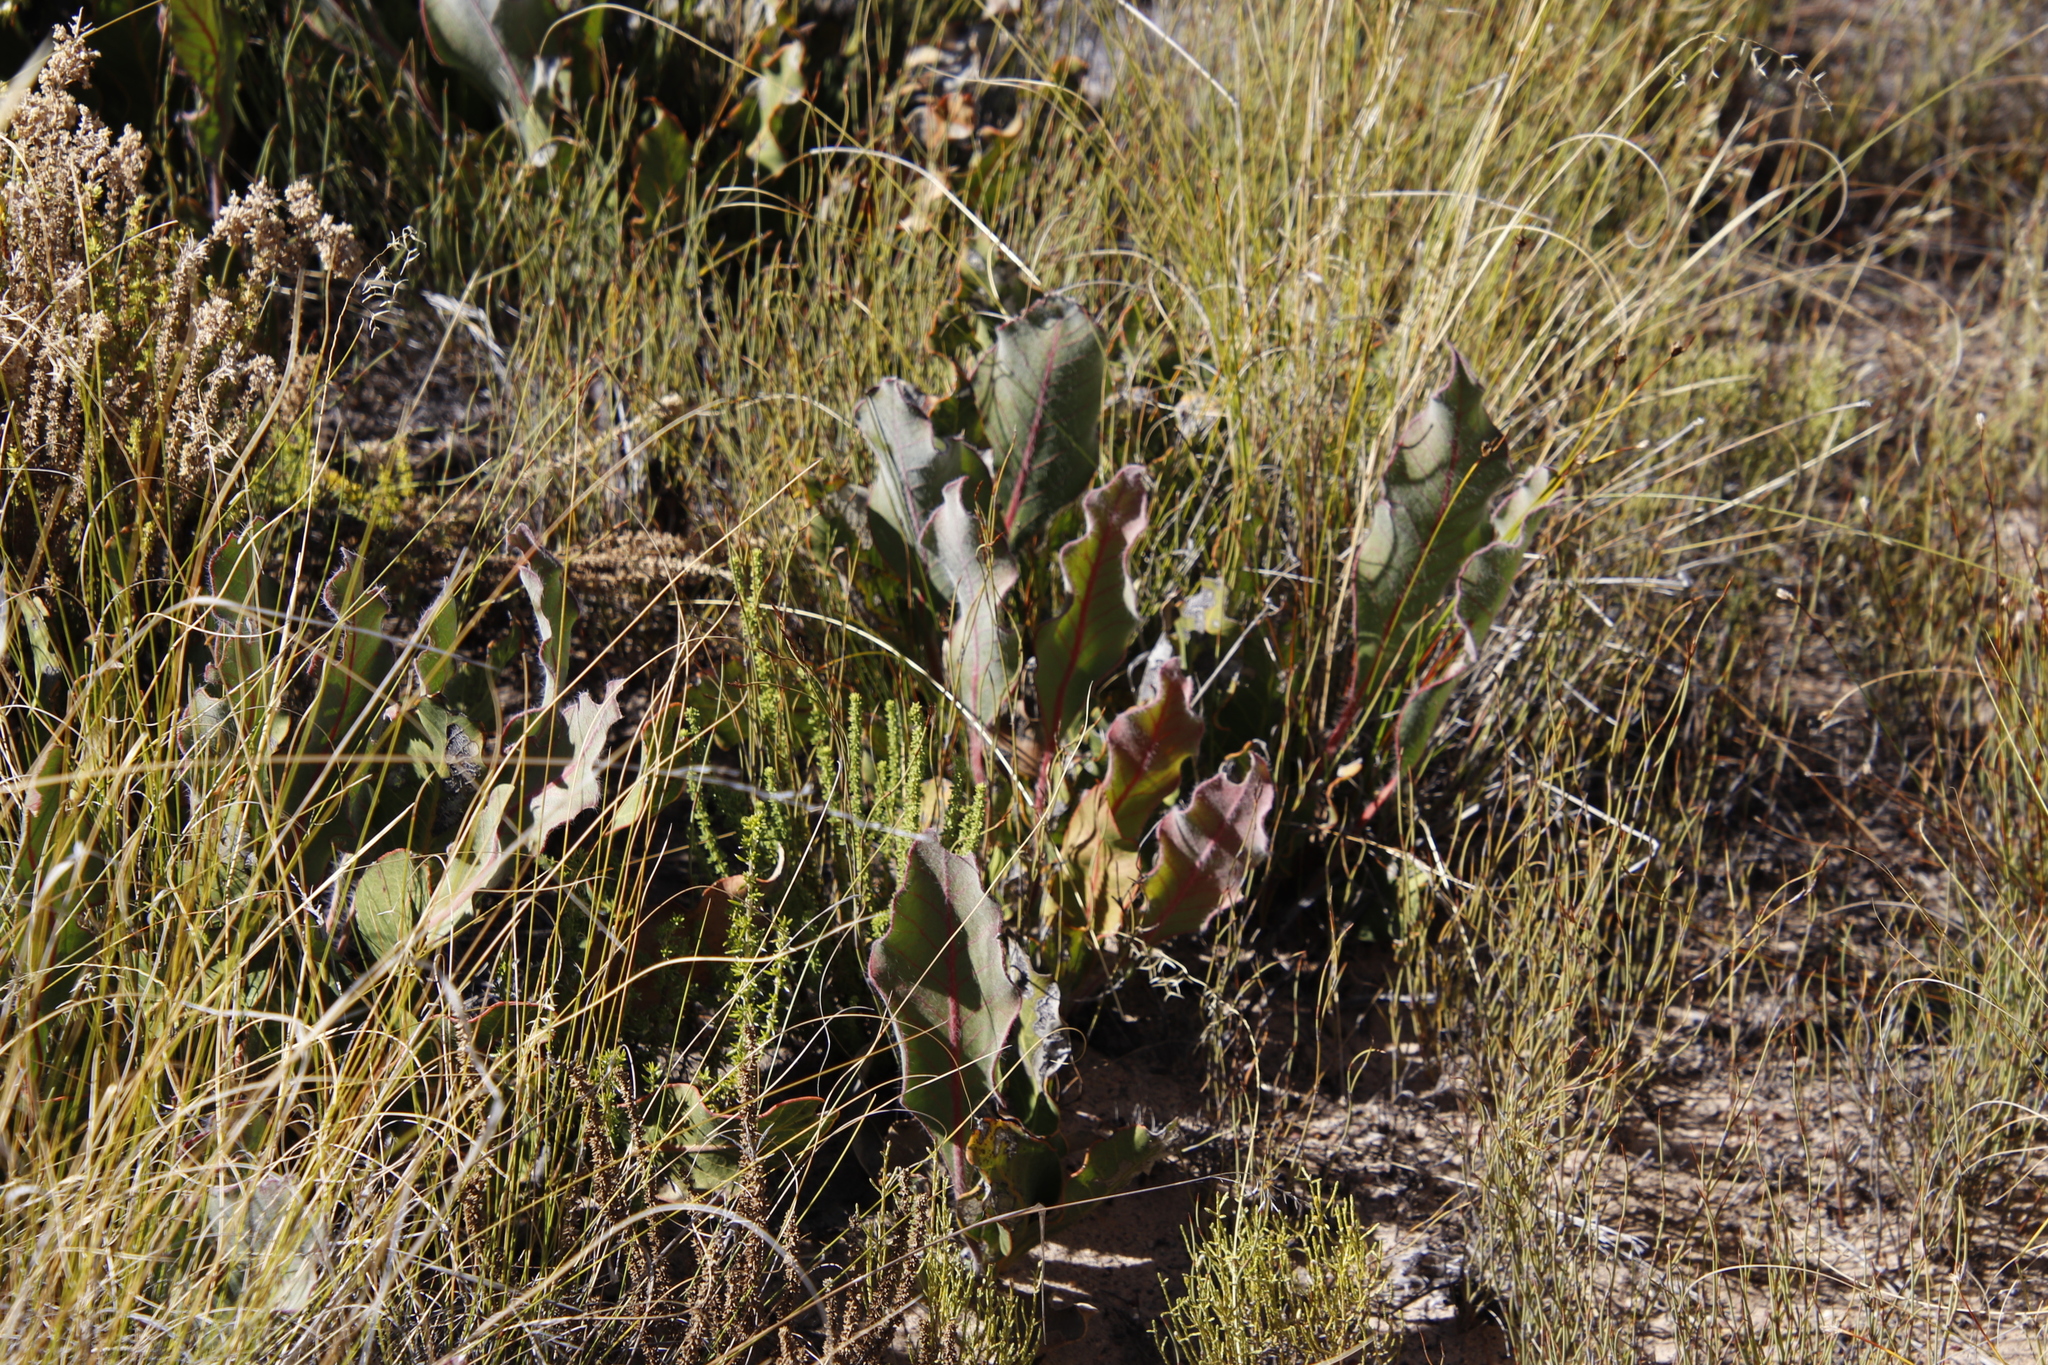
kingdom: Plantae
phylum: Tracheophyta
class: Magnoliopsida
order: Proteales
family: Proteaceae
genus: Protea
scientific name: Protea scolopendriifolia
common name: Harts-tongue-fern sugarbush
